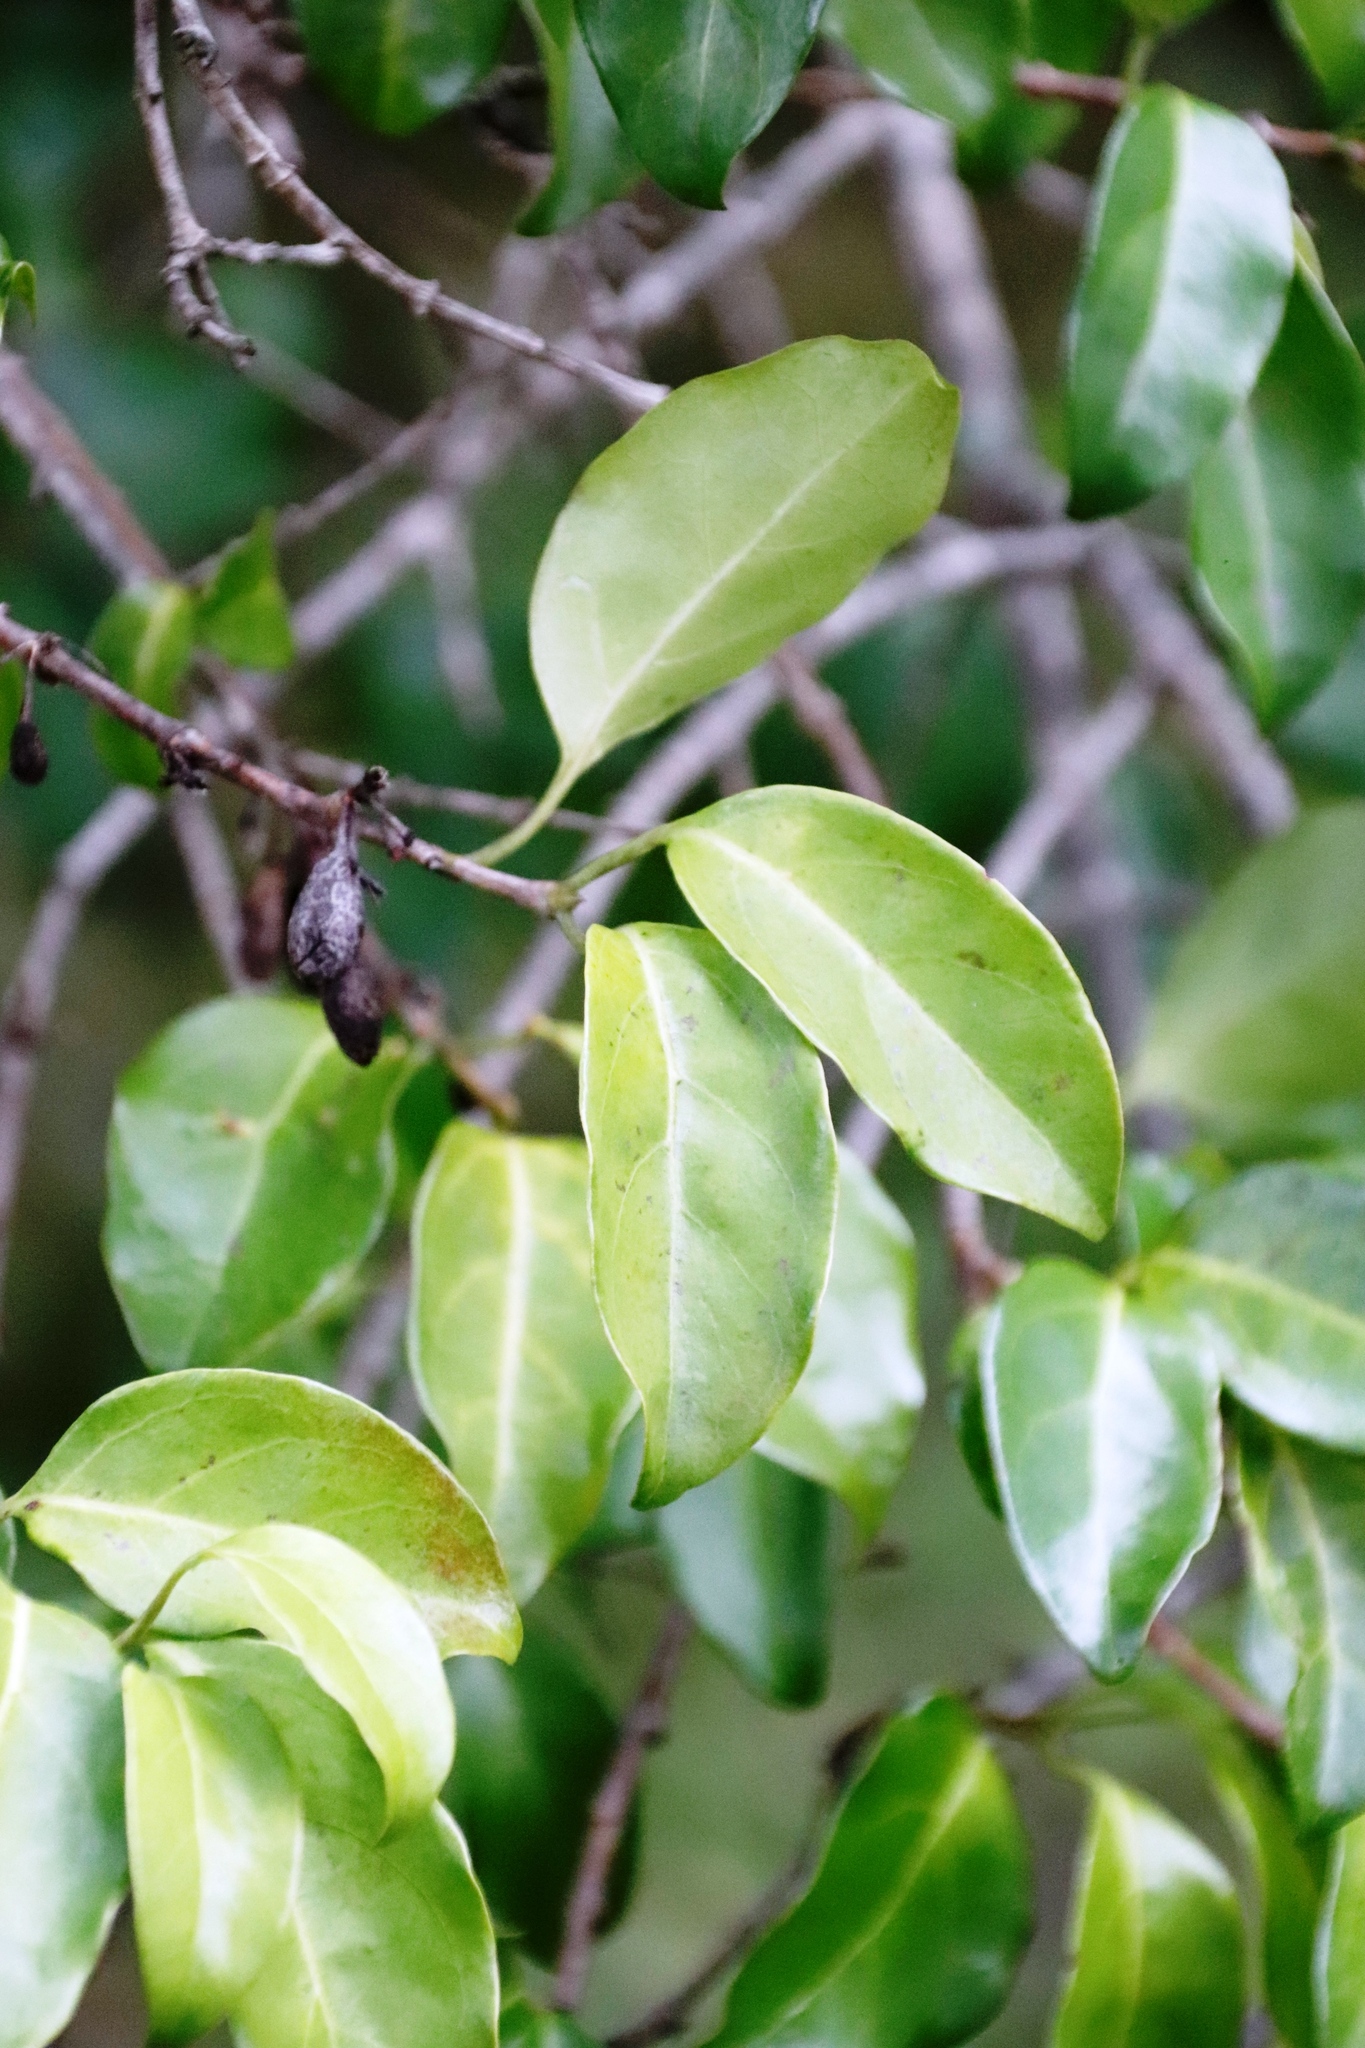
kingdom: Plantae
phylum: Tracheophyta
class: Magnoliopsida
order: Gentianales
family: Rubiaceae
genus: Canthium
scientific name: Canthium inerme
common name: Unarmed turkey-berry
